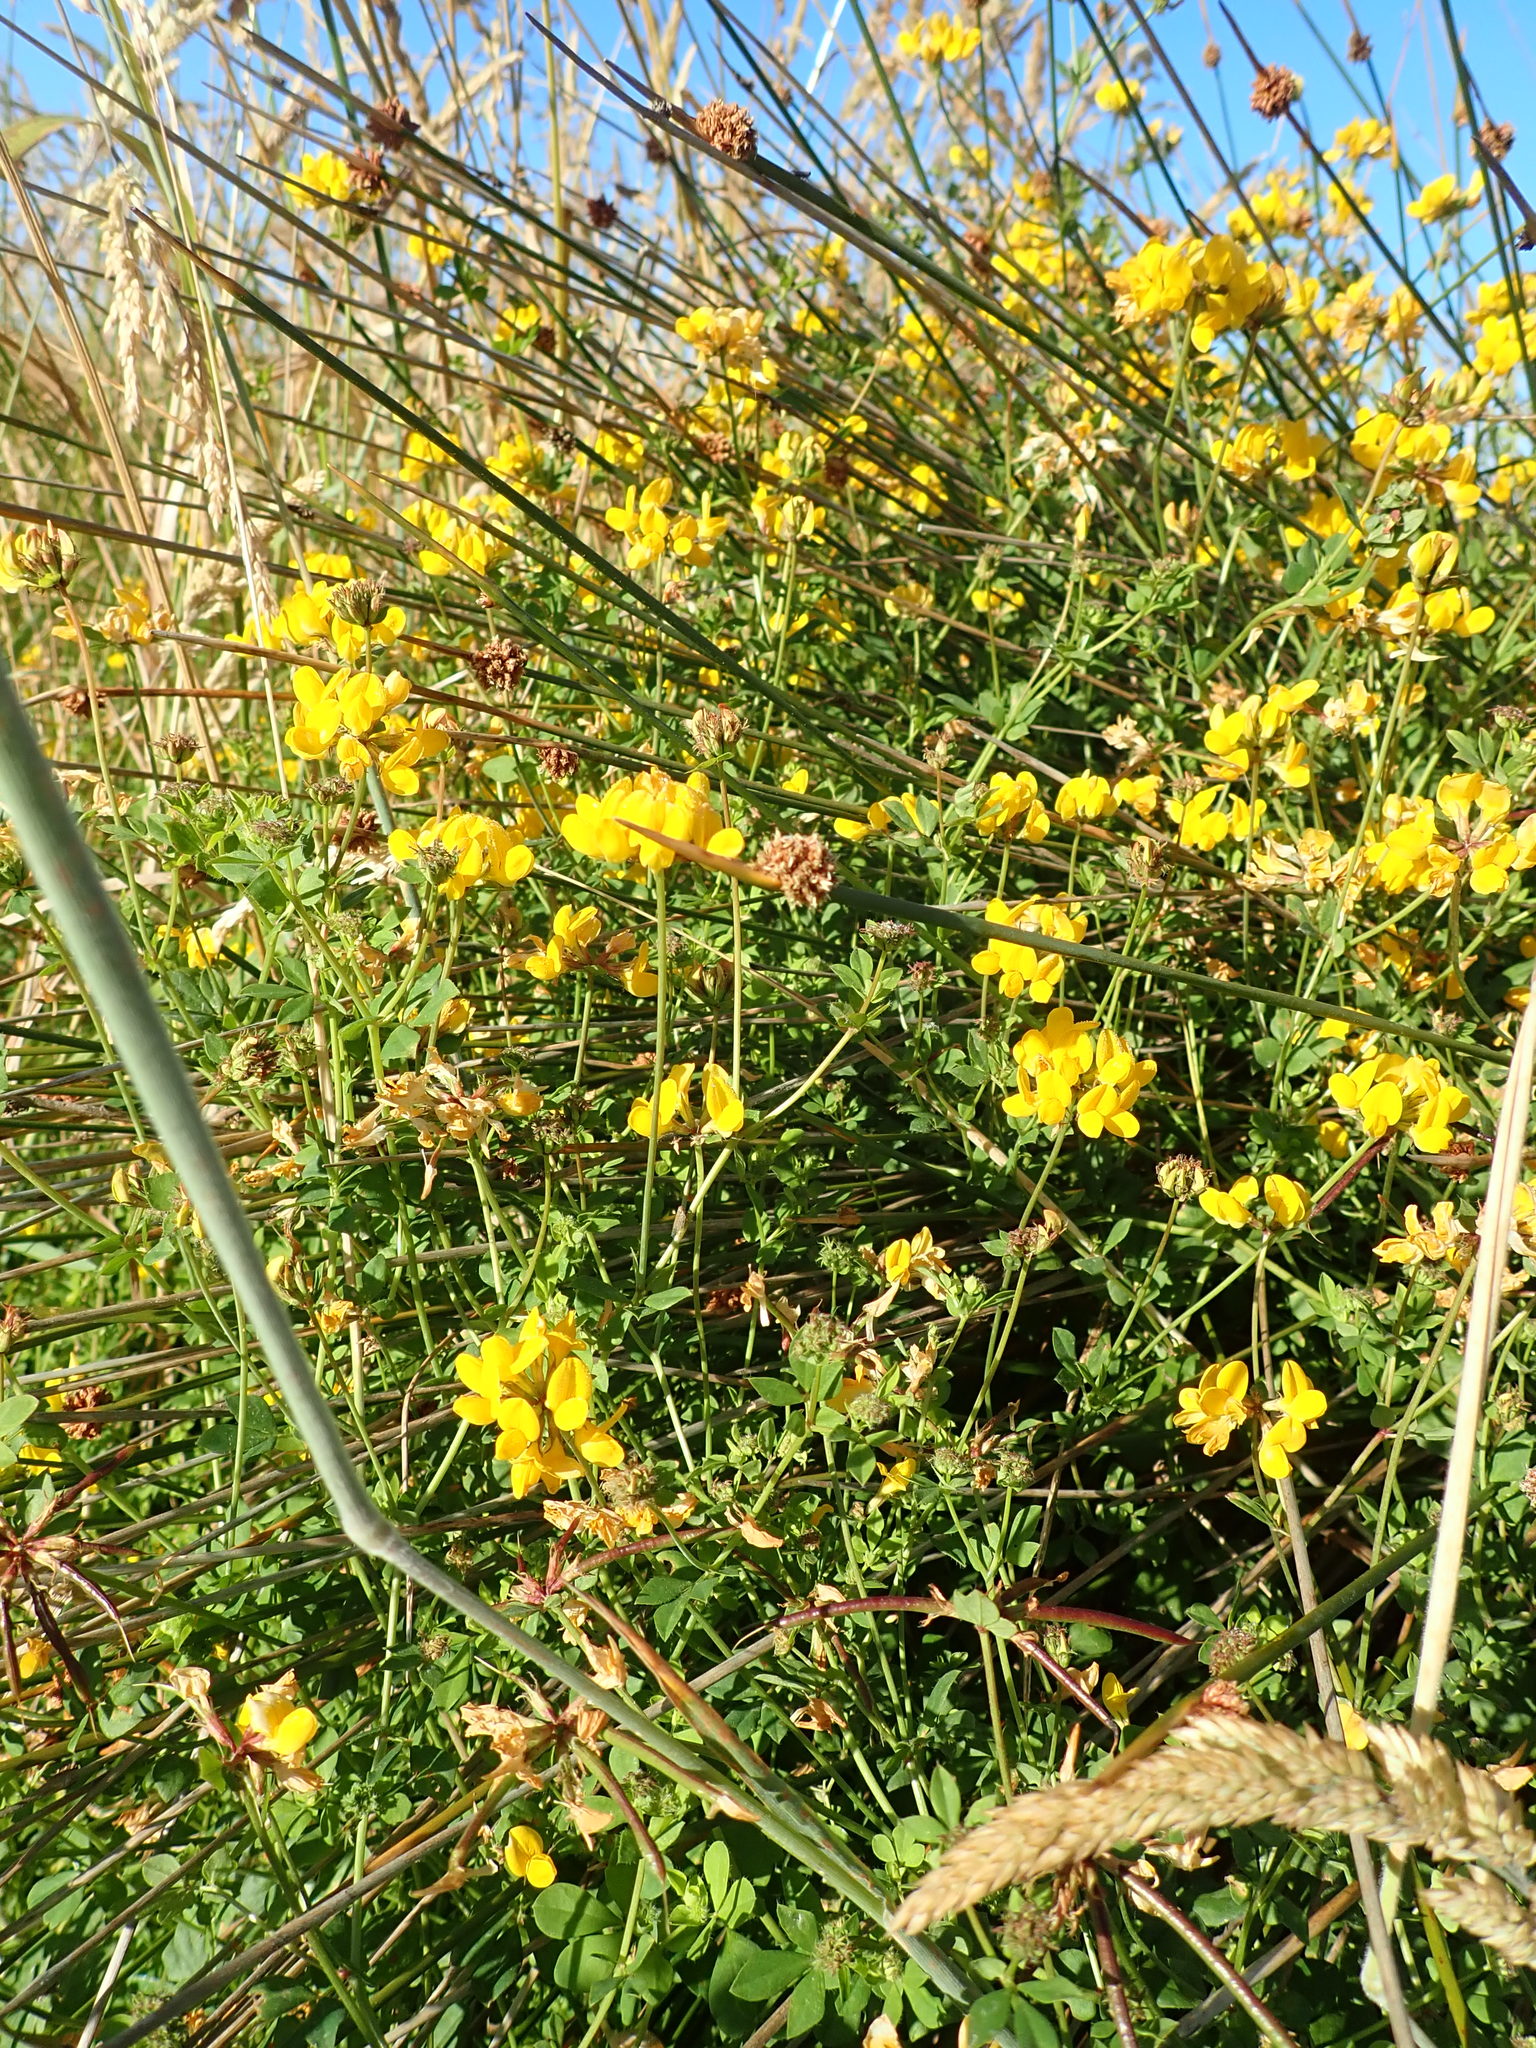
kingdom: Plantae
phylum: Tracheophyta
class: Magnoliopsida
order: Fabales
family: Fabaceae
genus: Lotus
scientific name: Lotus pedunculatus
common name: Greater birdsfoot-trefoil
